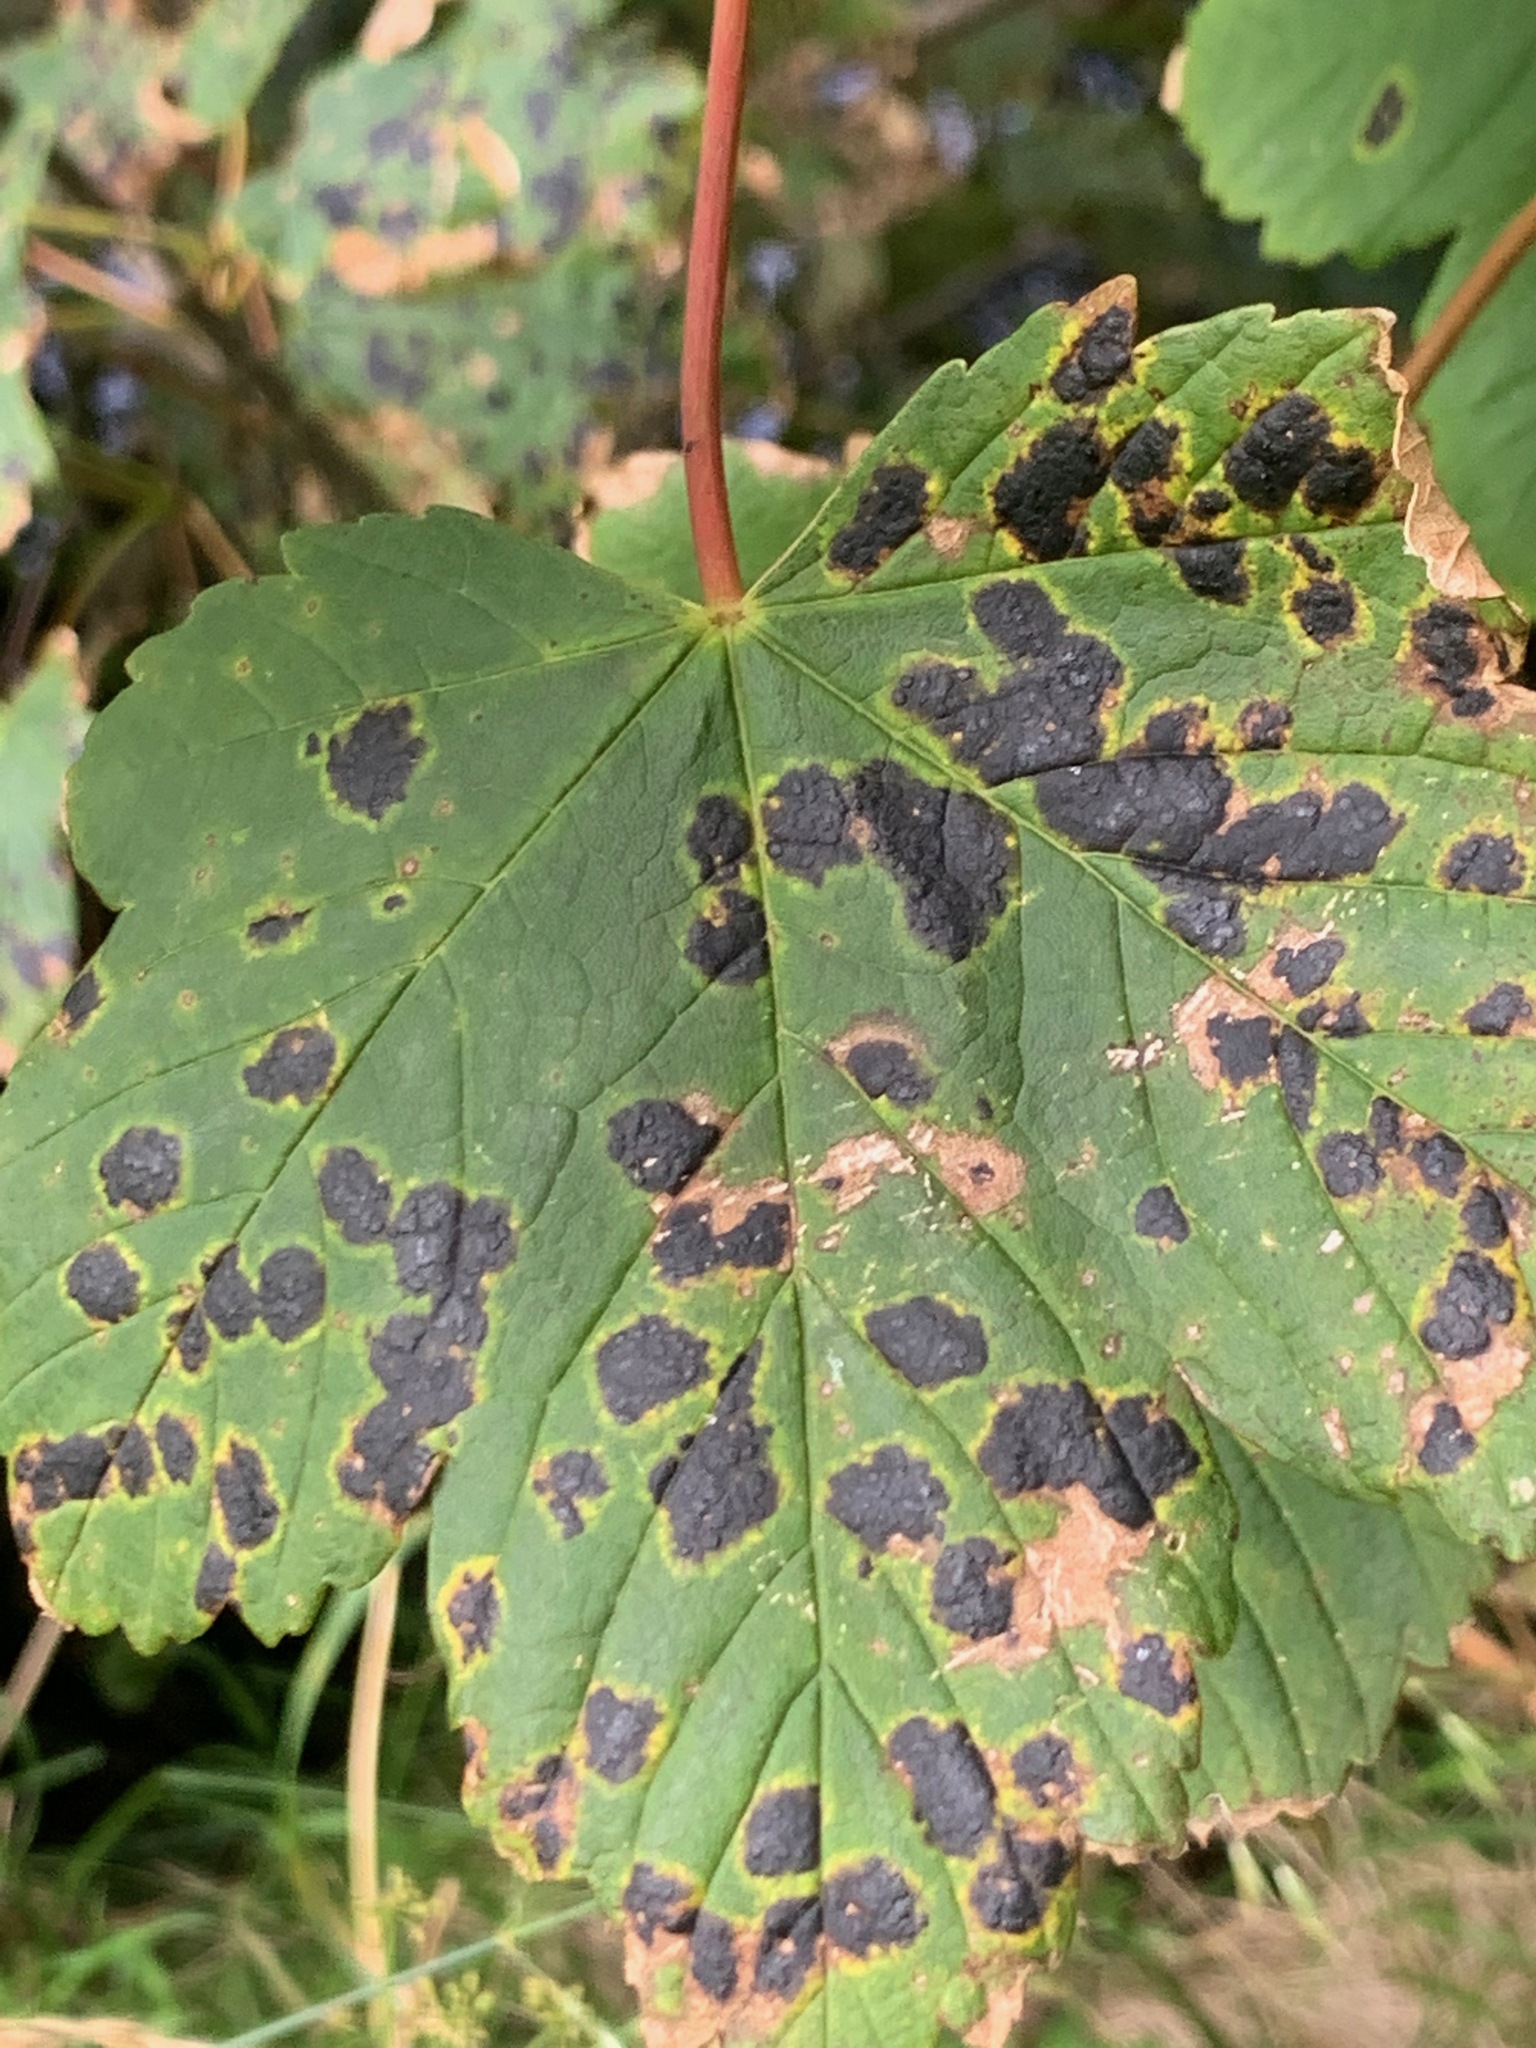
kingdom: Fungi
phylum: Ascomycota
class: Leotiomycetes
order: Rhytismatales
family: Rhytismataceae
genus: Rhytisma
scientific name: Rhytisma acerinum
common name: European tar spot
